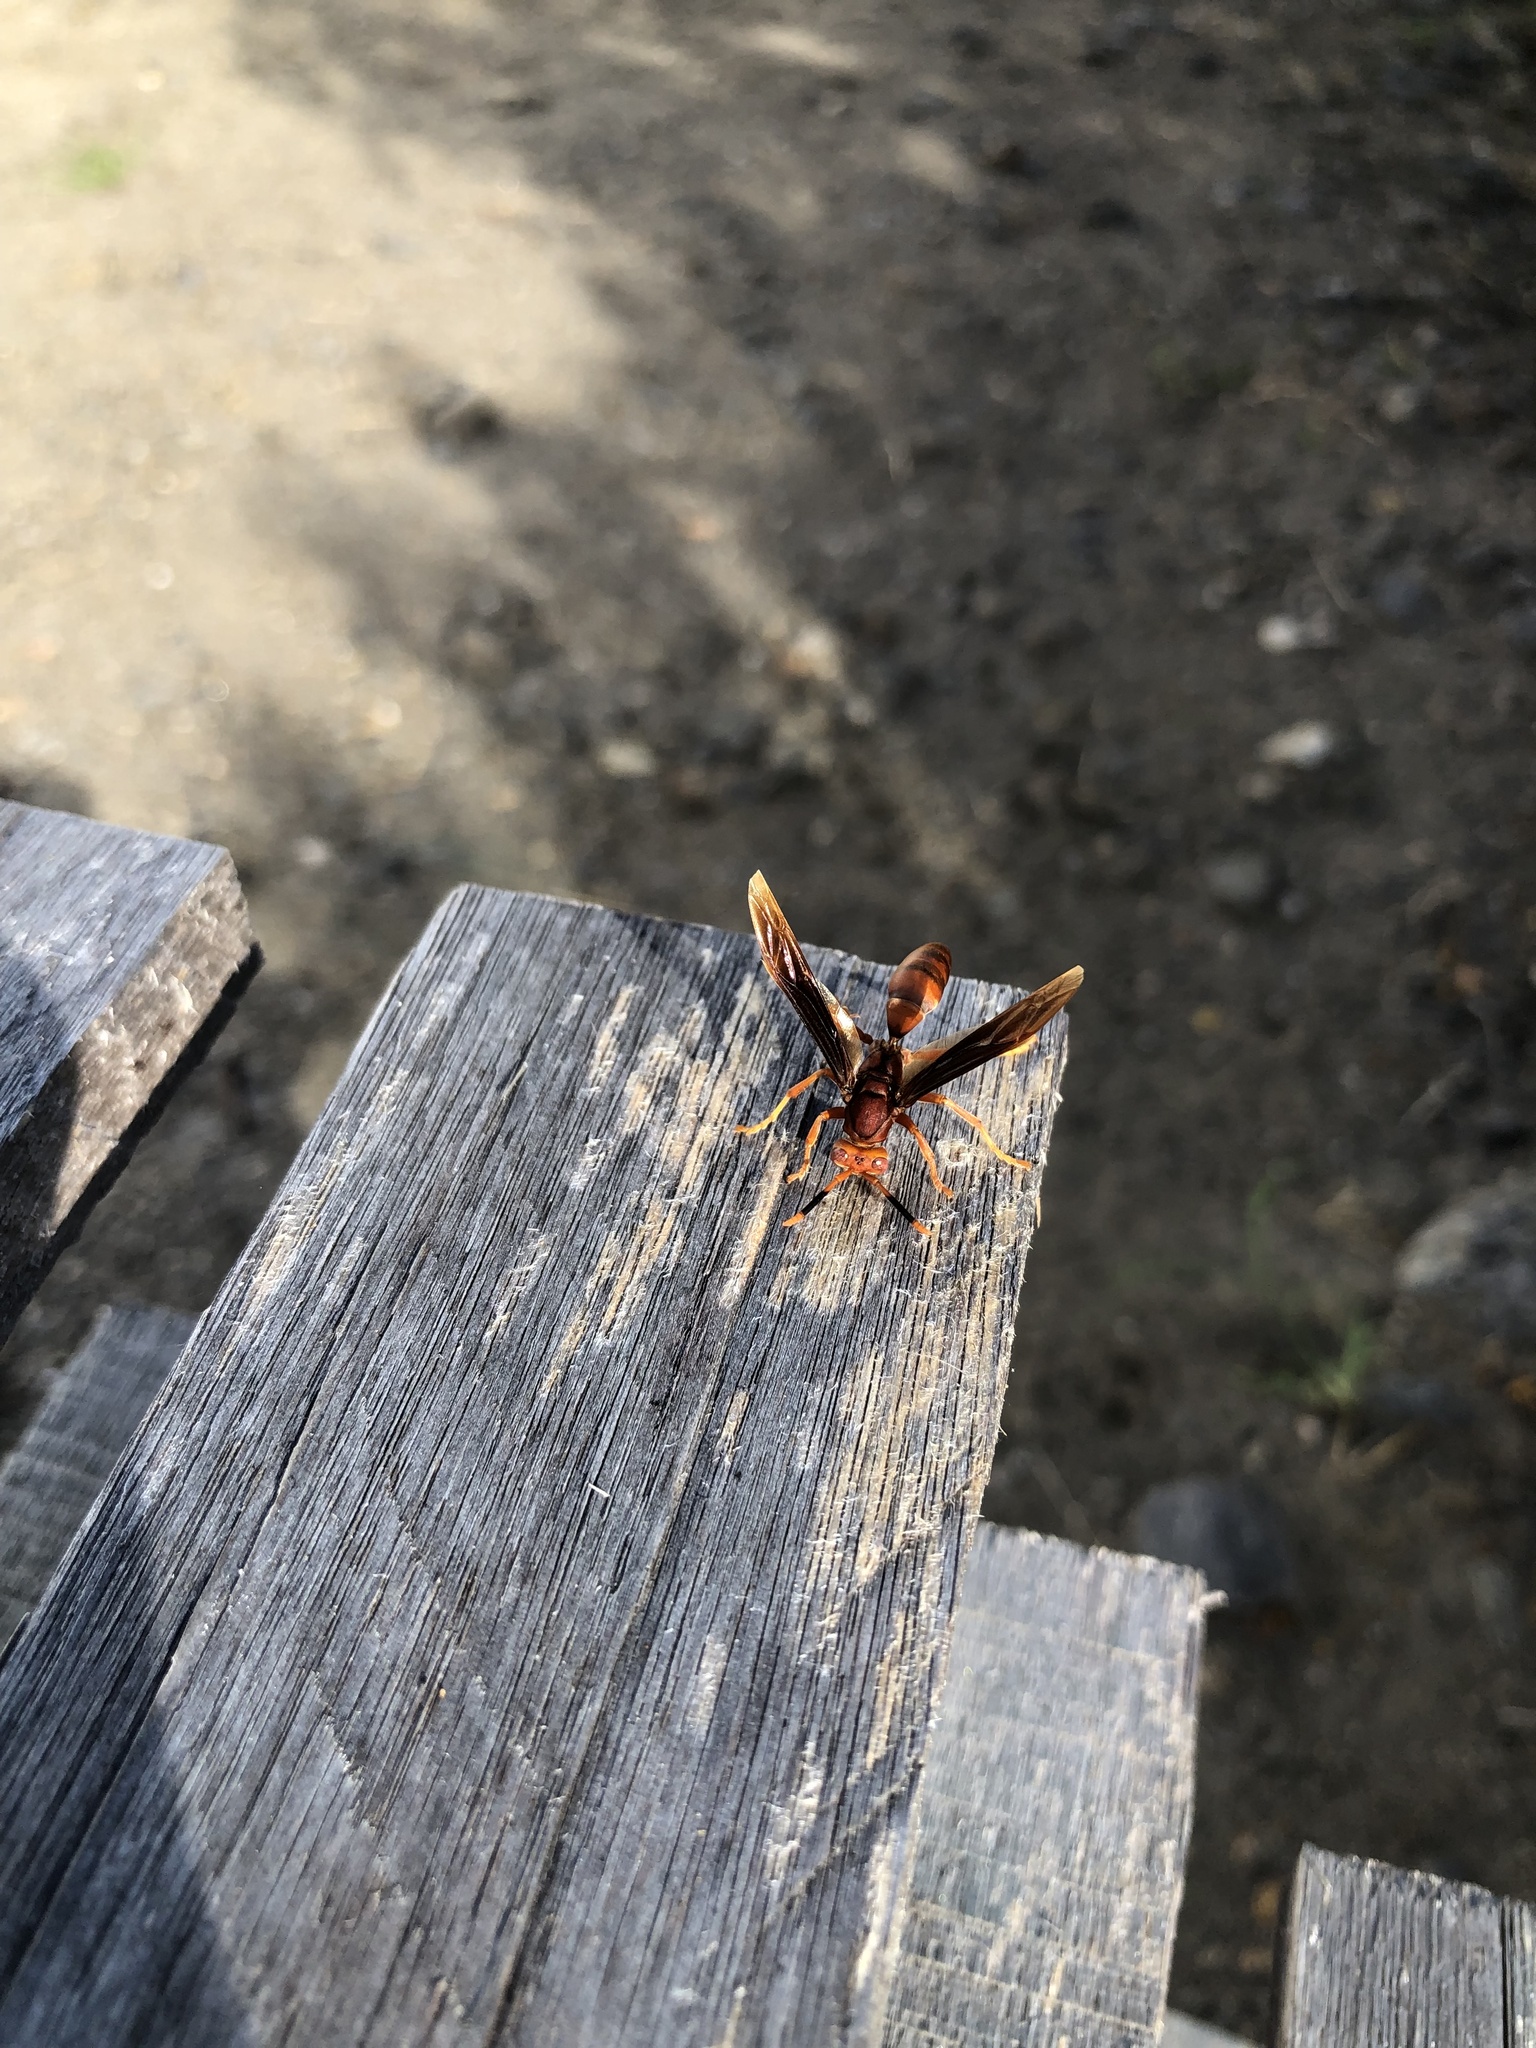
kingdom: Animalia
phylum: Arthropoda
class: Insecta
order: Hymenoptera
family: Eumenidae
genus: Polistes
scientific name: Polistes canadensis
